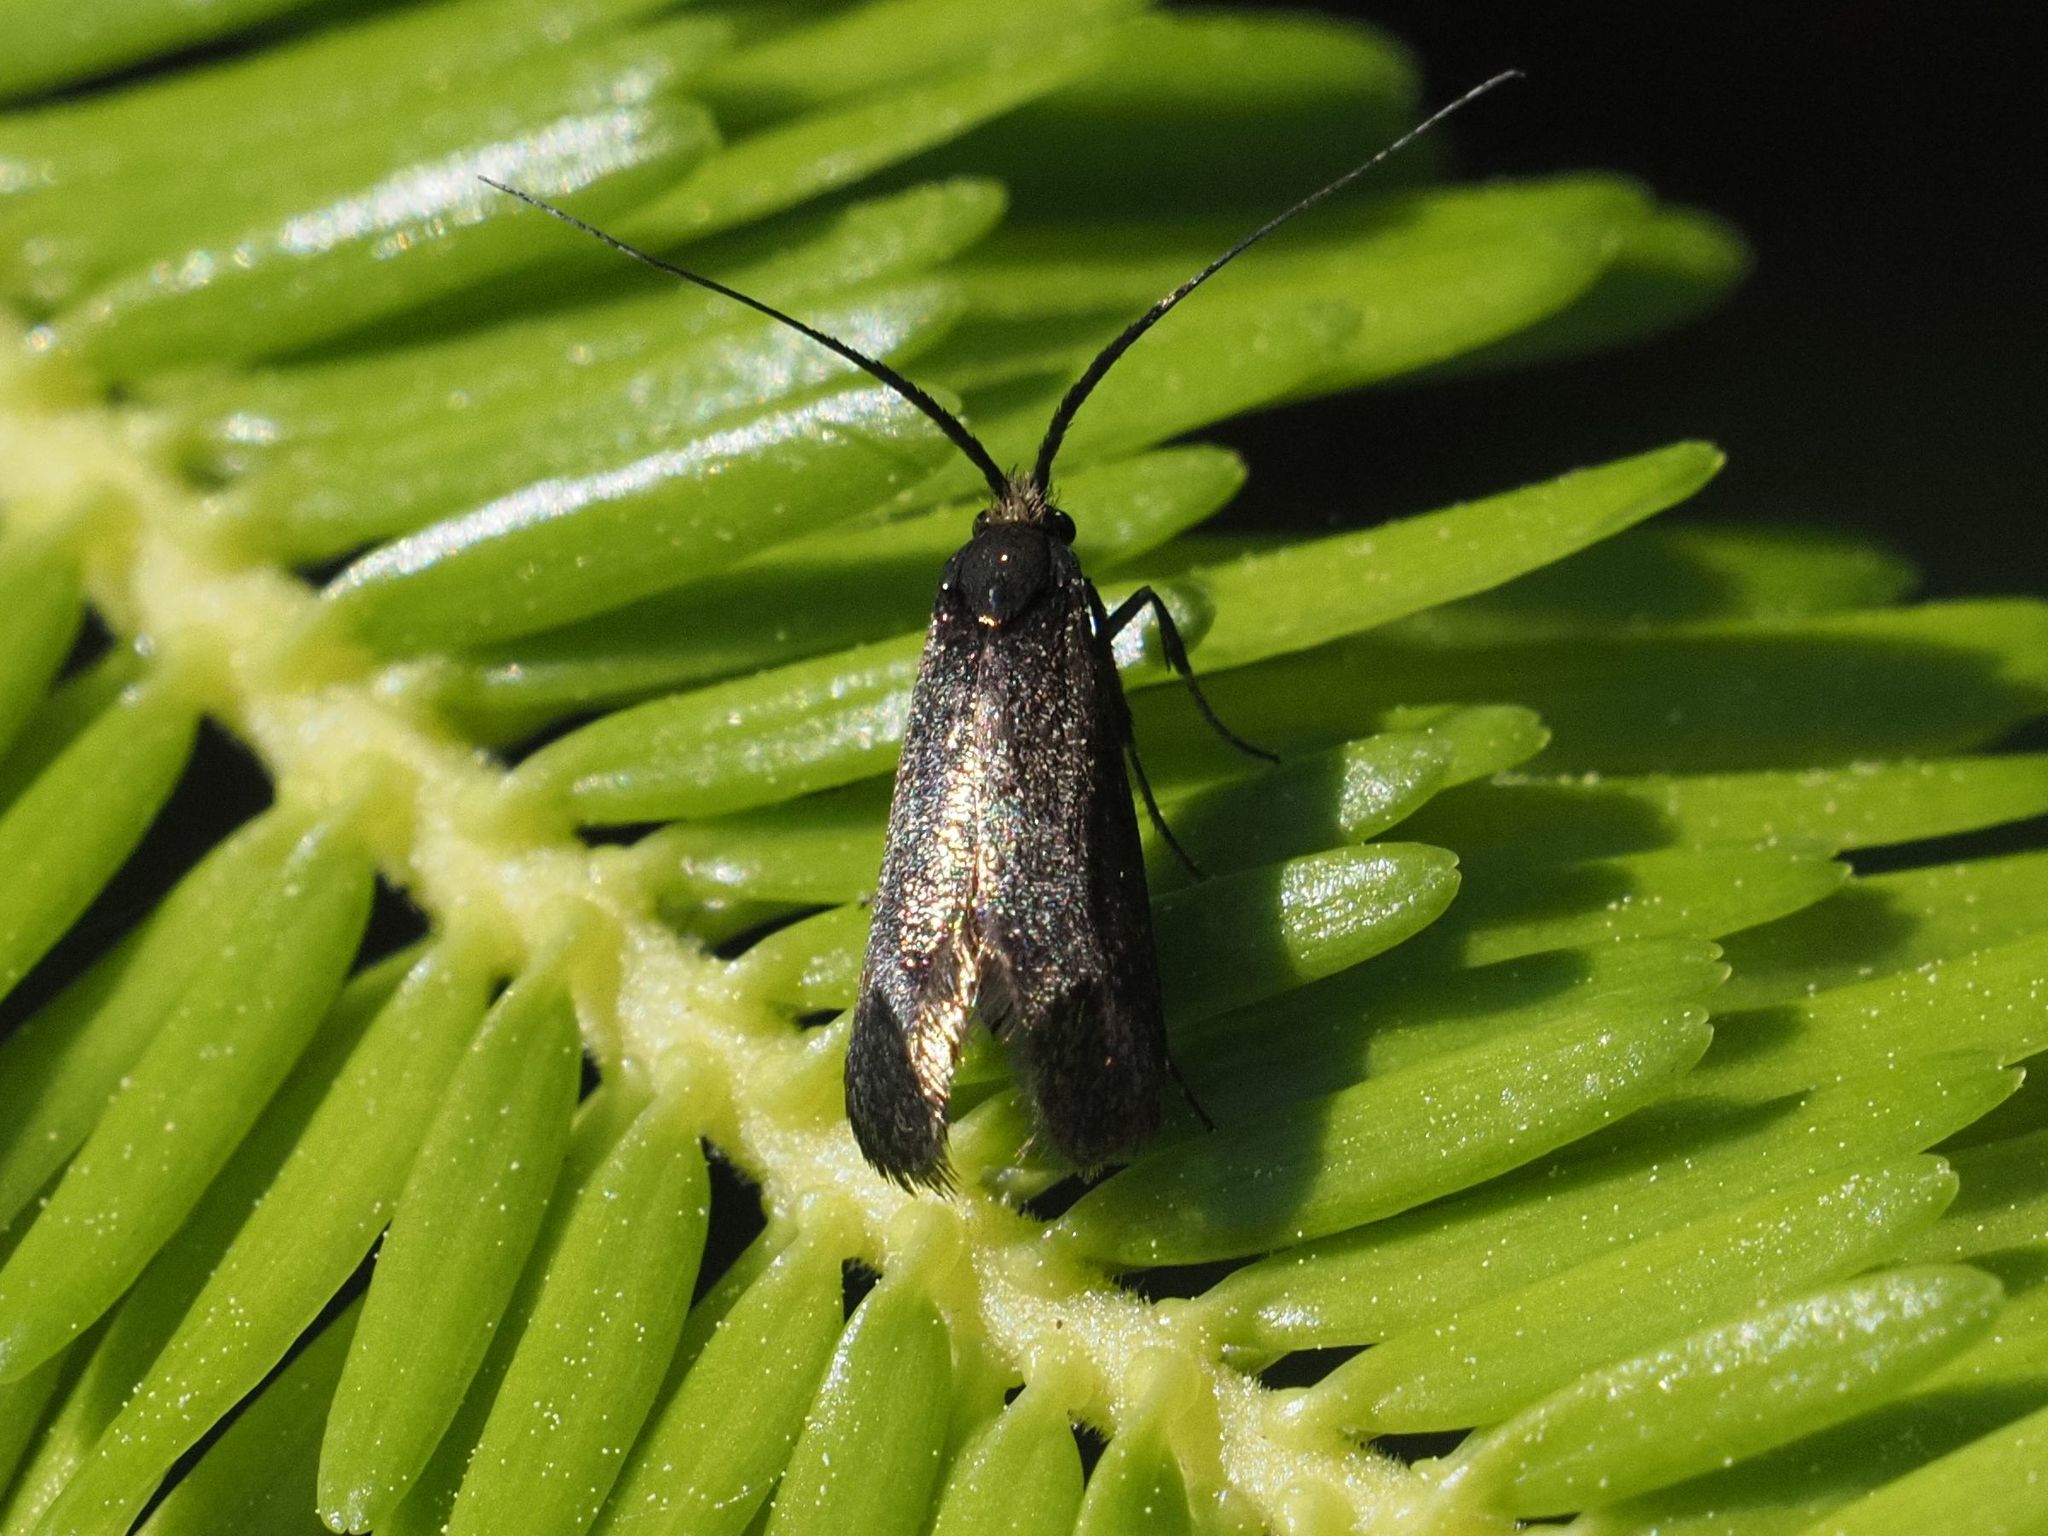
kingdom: Animalia
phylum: Arthropoda
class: Insecta
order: Lepidoptera
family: Adelidae
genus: Adela
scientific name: Adela viridella
